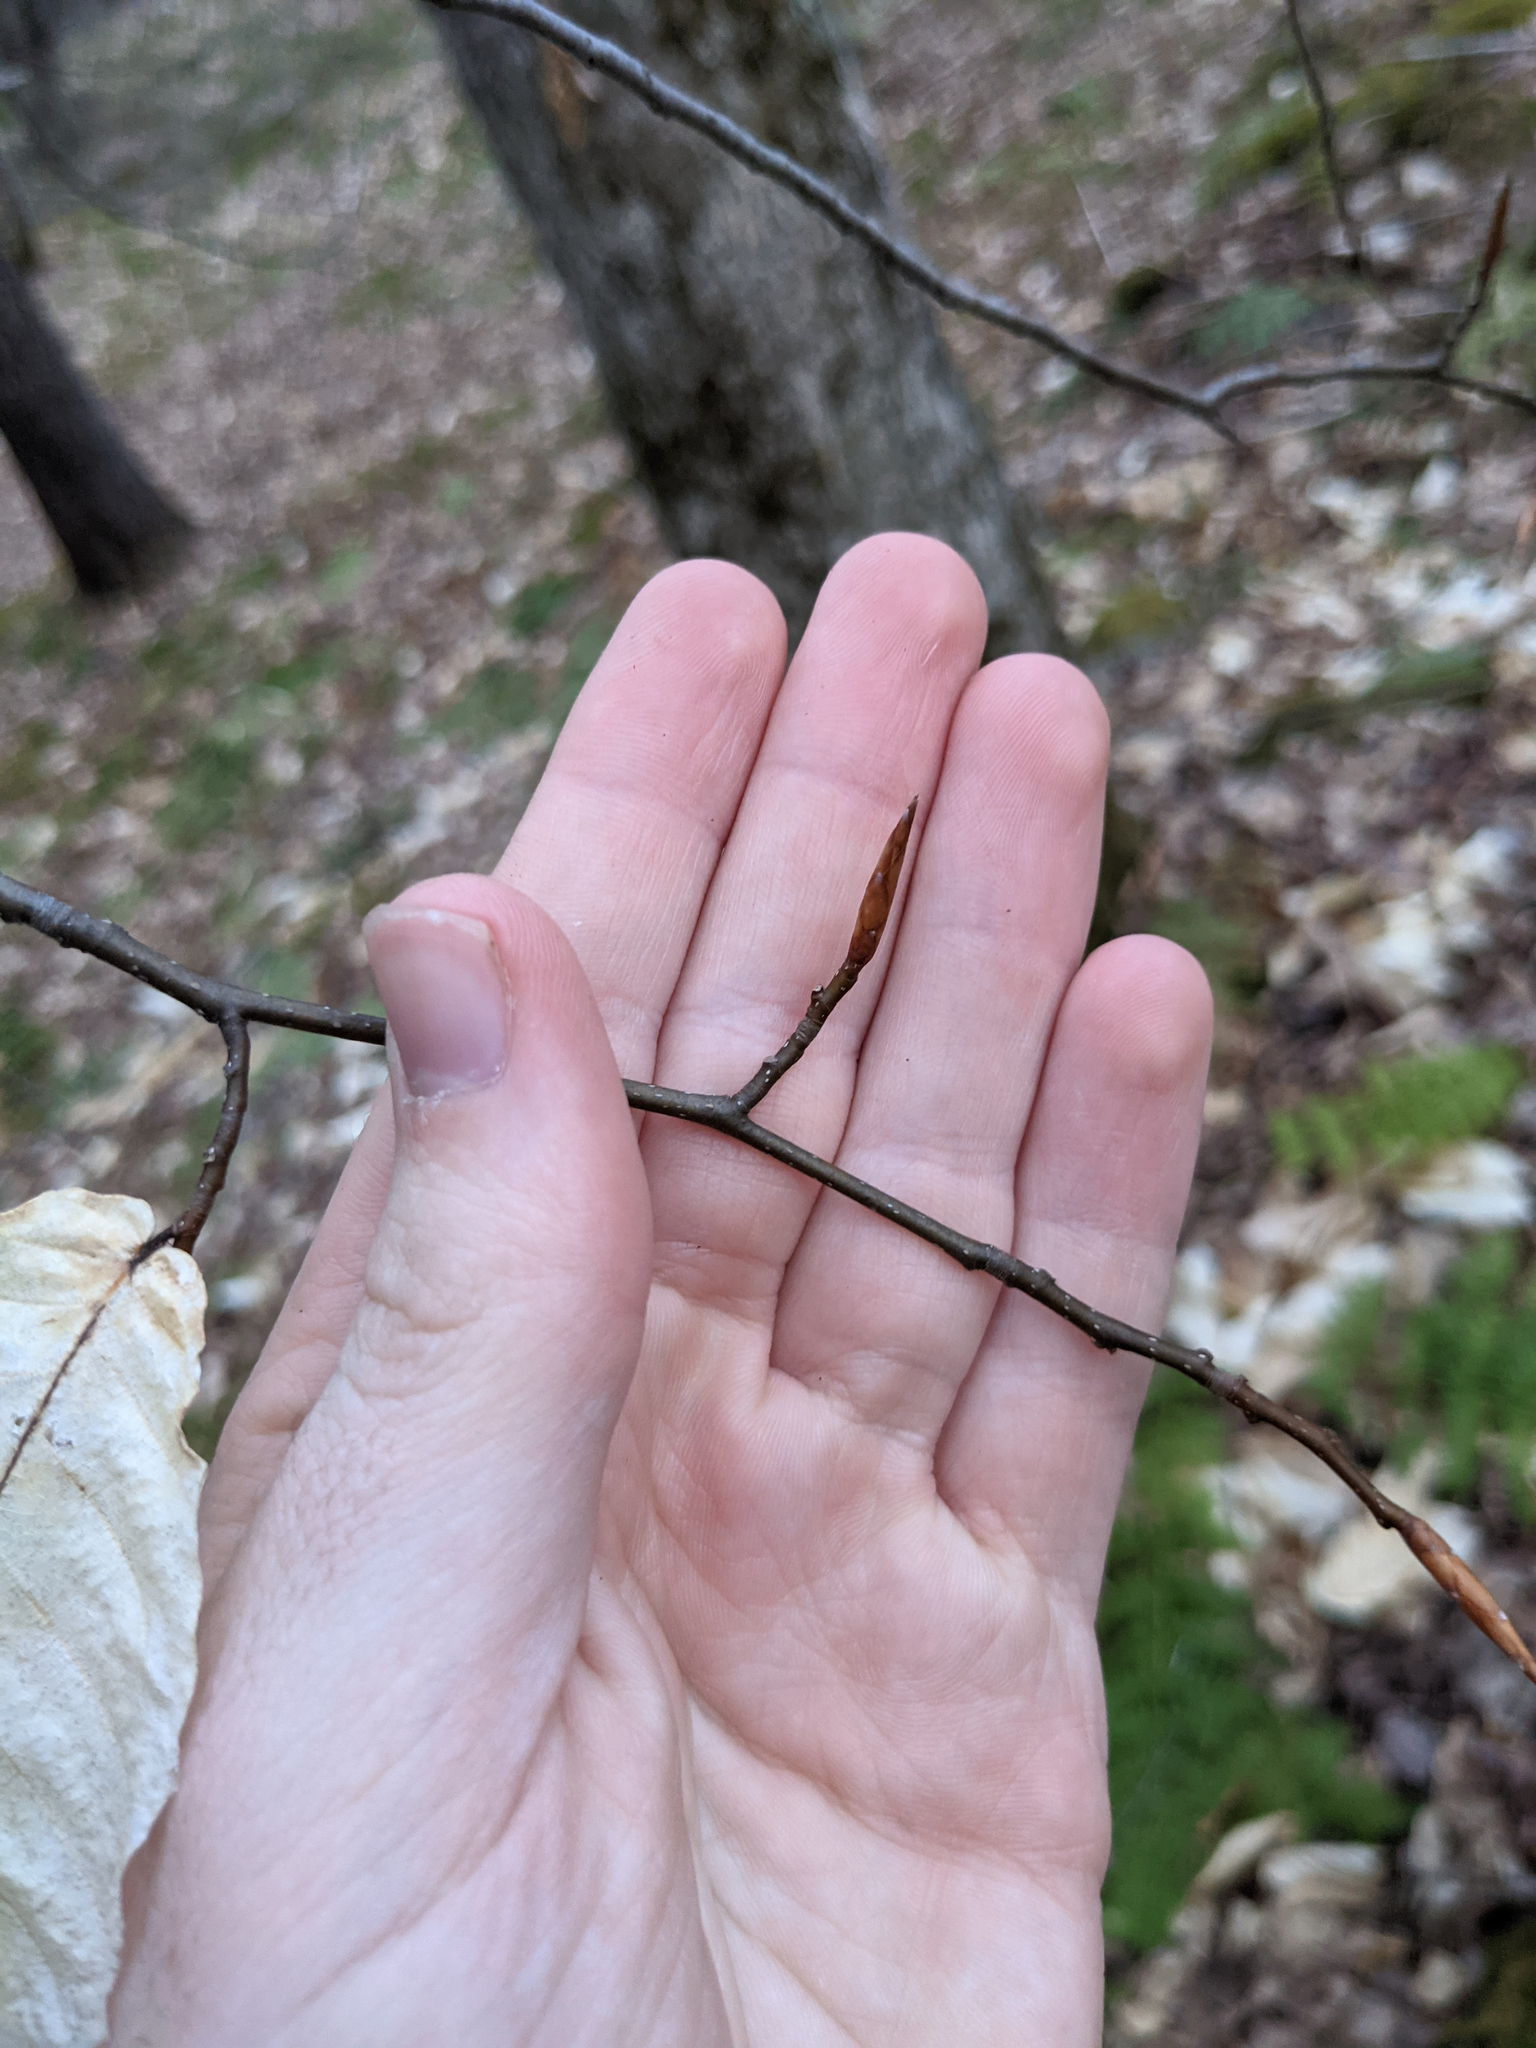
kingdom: Plantae
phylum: Tracheophyta
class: Magnoliopsida
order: Fagales
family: Fagaceae
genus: Fagus
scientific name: Fagus grandifolia
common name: American beech
